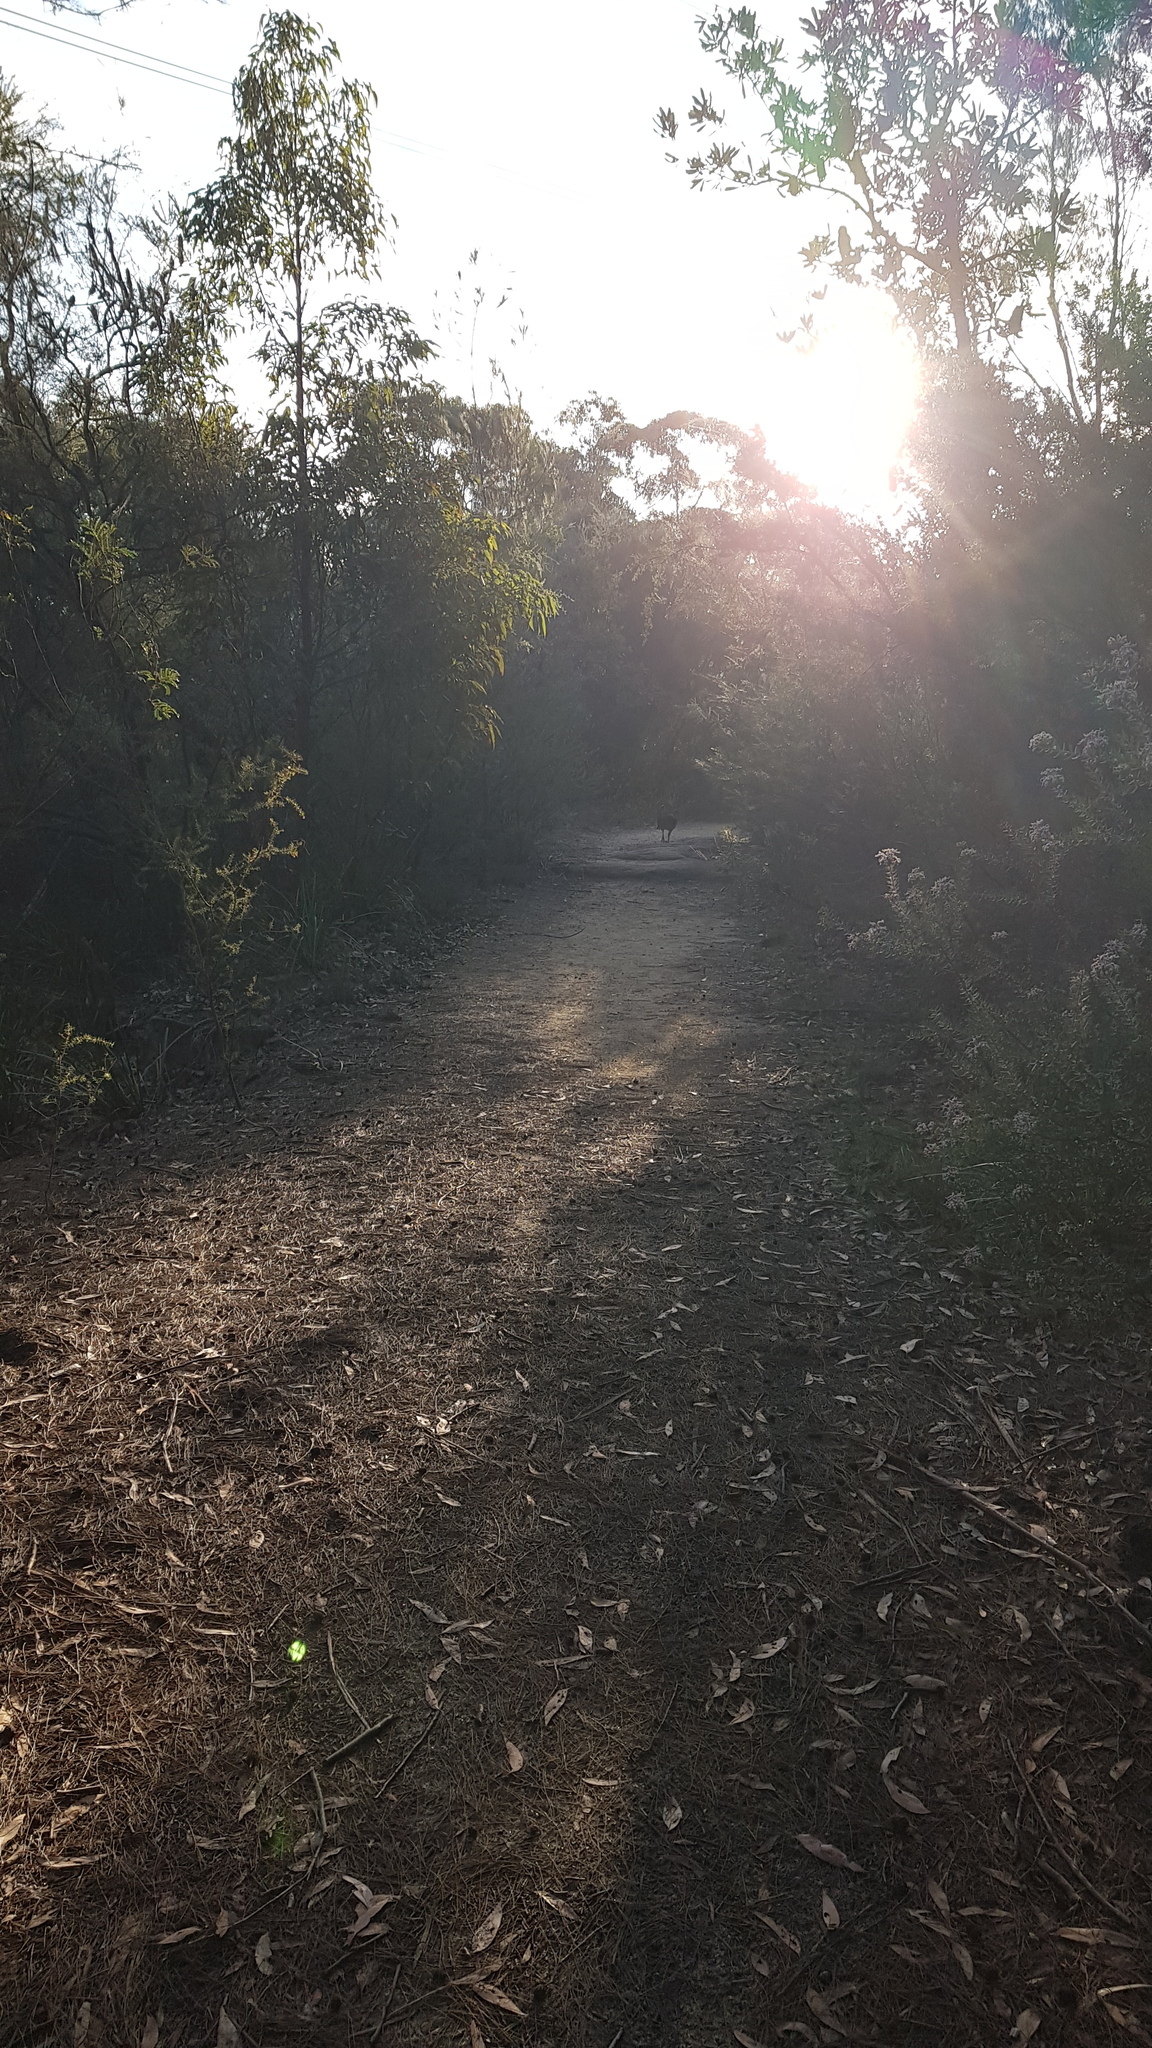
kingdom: Animalia
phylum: Chordata
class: Aves
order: Galliformes
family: Megapodiidae
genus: Alectura
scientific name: Alectura lathami
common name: Australian brushturkey
